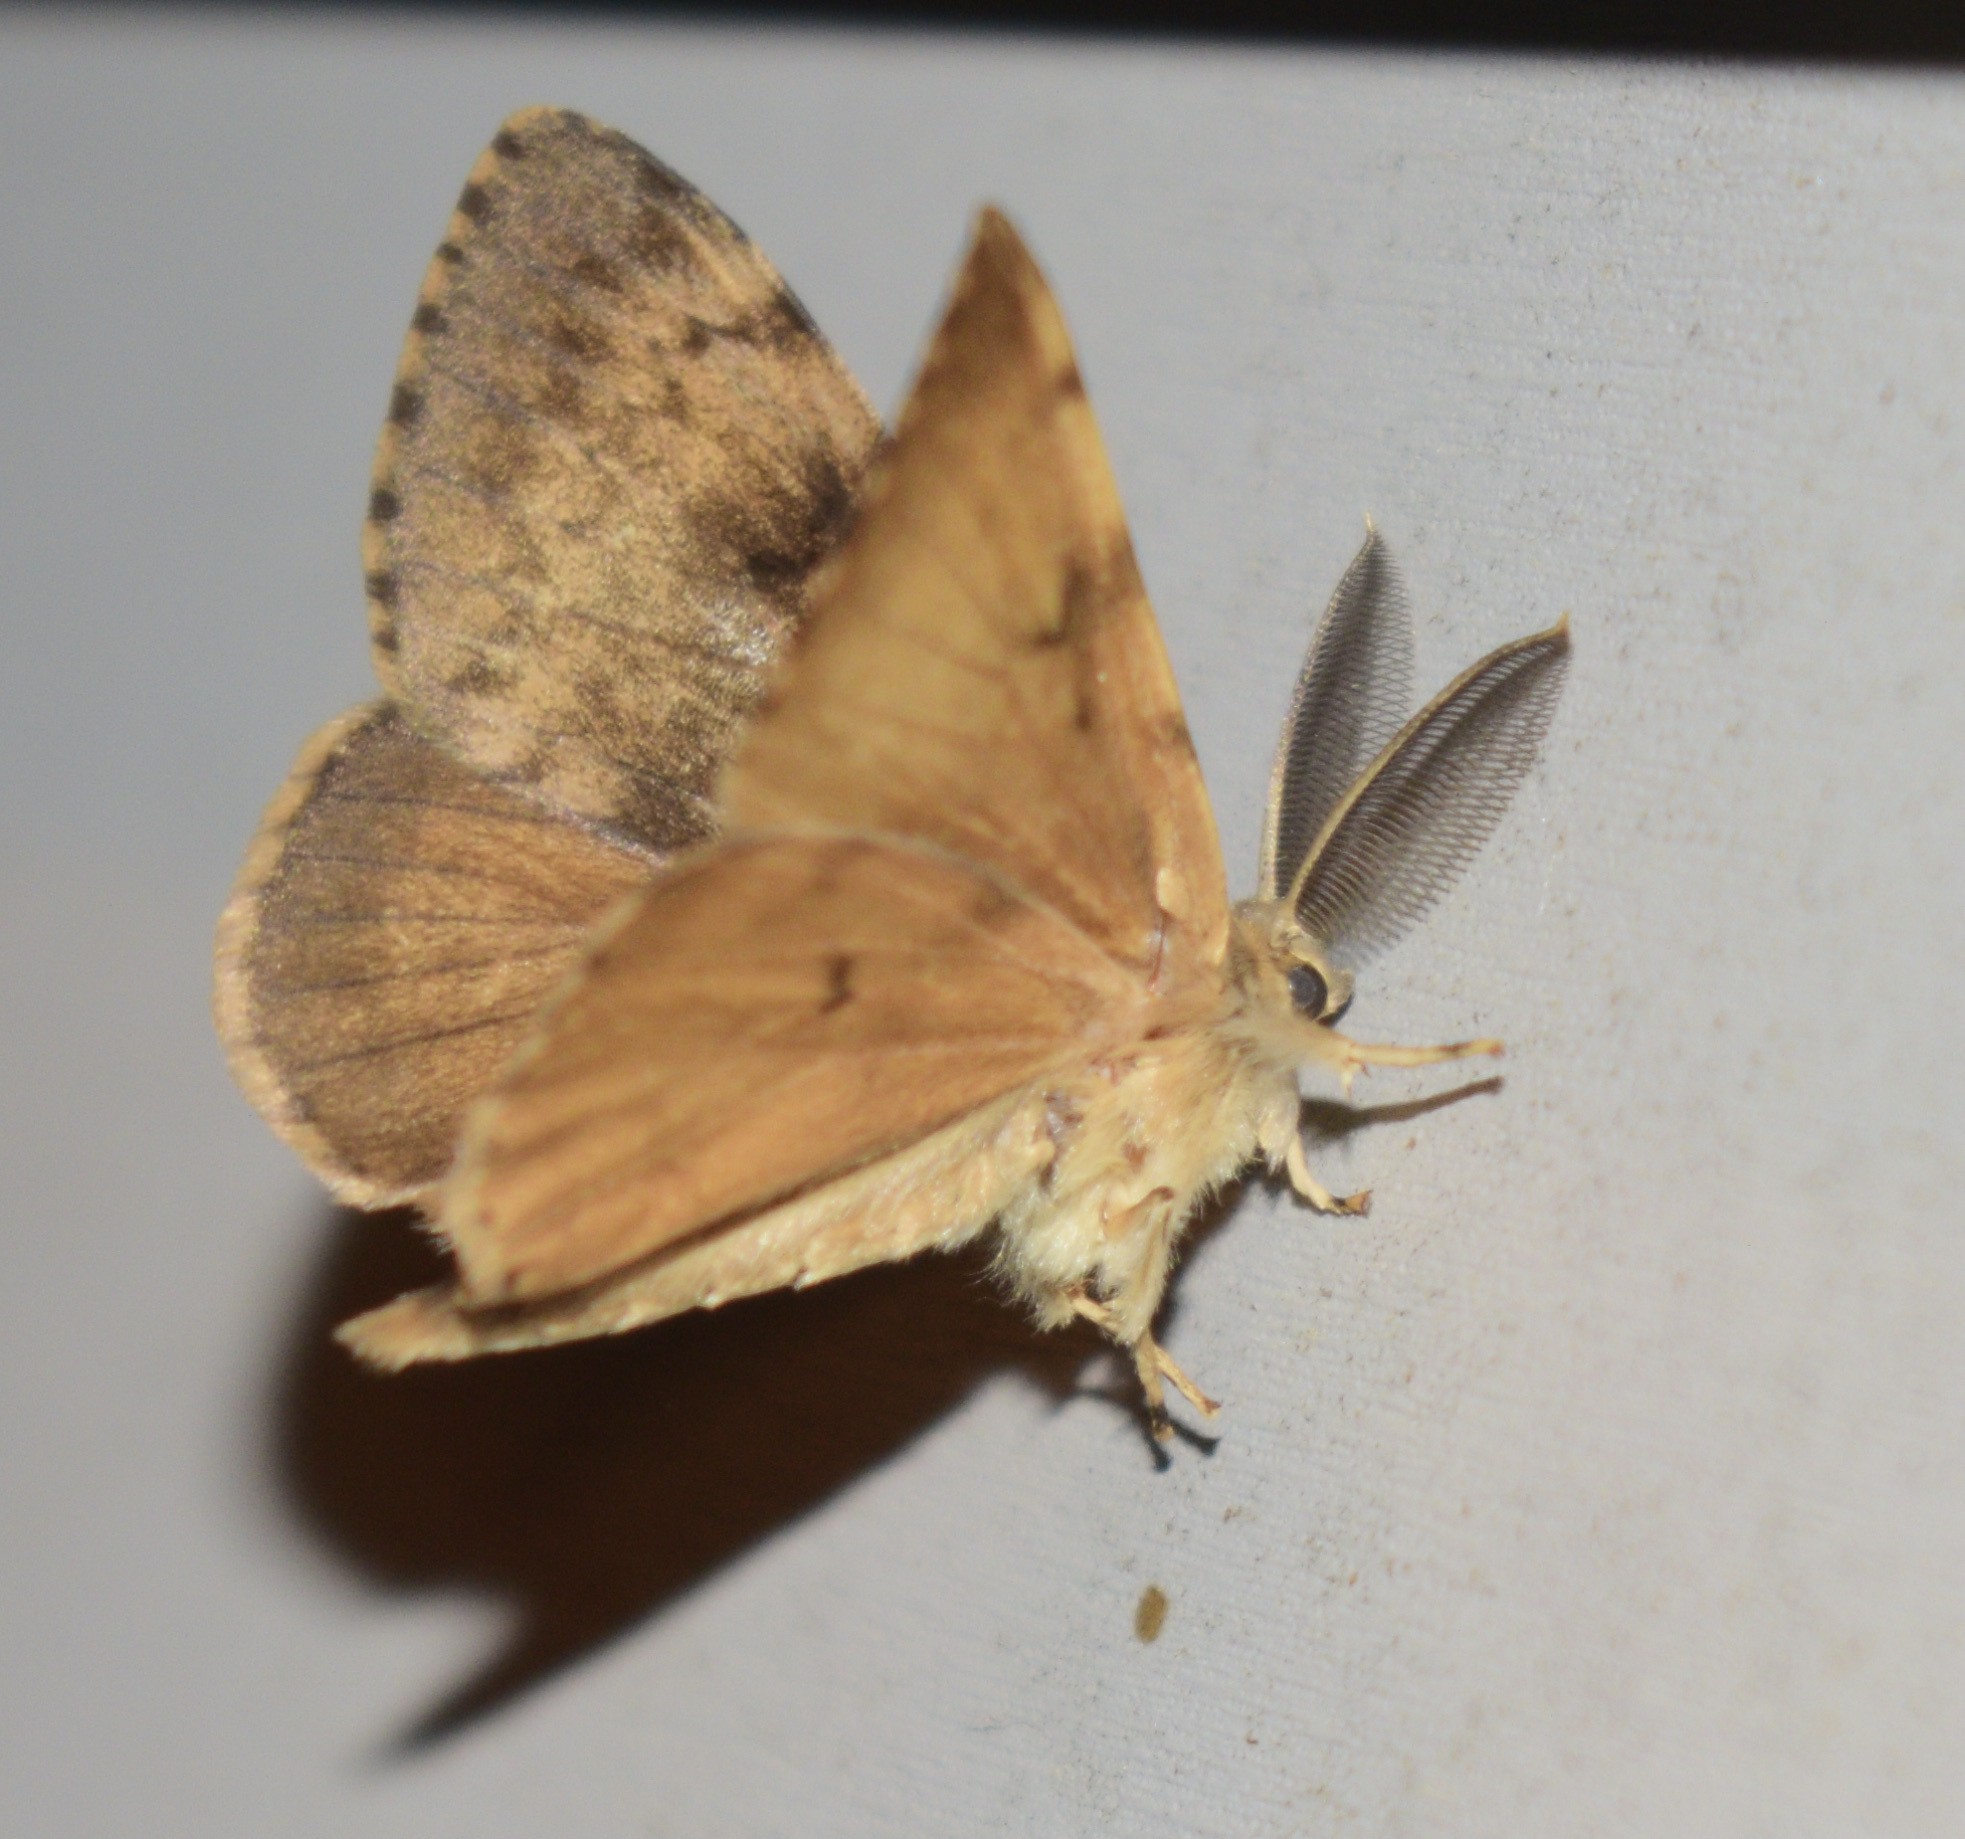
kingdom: Animalia
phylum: Arthropoda
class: Insecta
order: Lepidoptera
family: Erebidae
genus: Lymantria
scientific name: Lymantria dispar
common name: Gypsy moth
